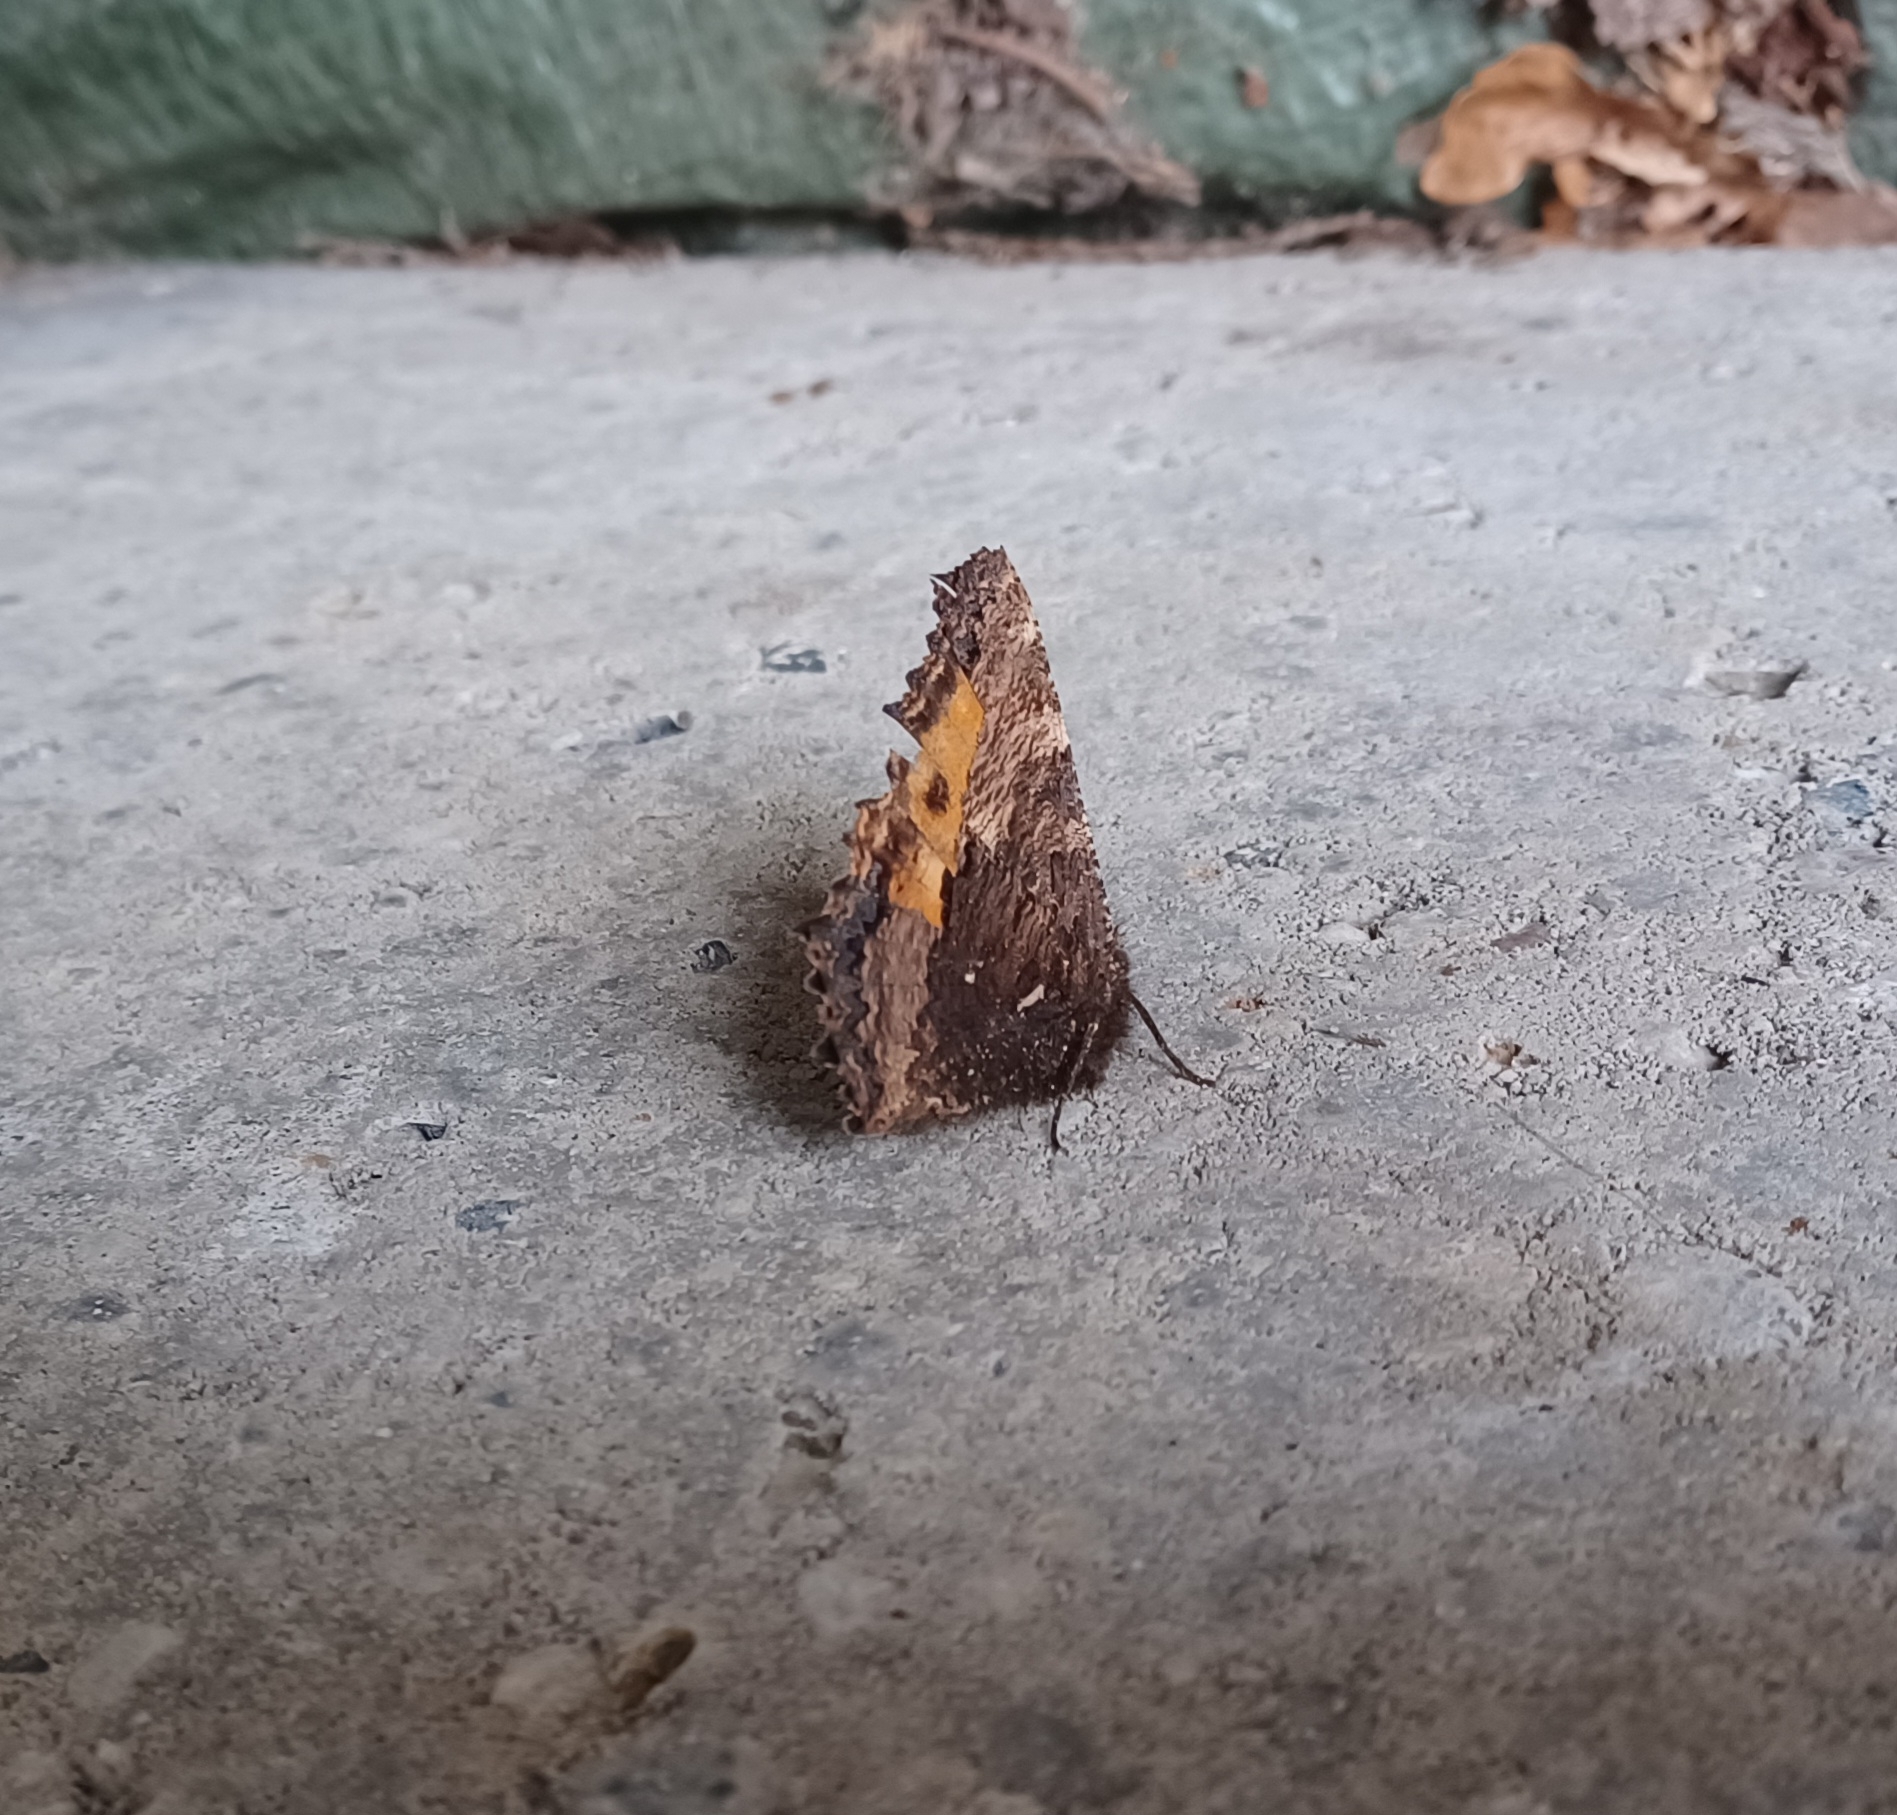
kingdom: Animalia
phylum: Arthropoda
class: Insecta
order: Lepidoptera
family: Nymphalidae
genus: Nymphalis
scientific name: Nymphalis polychloros
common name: Large tortoiseshell
